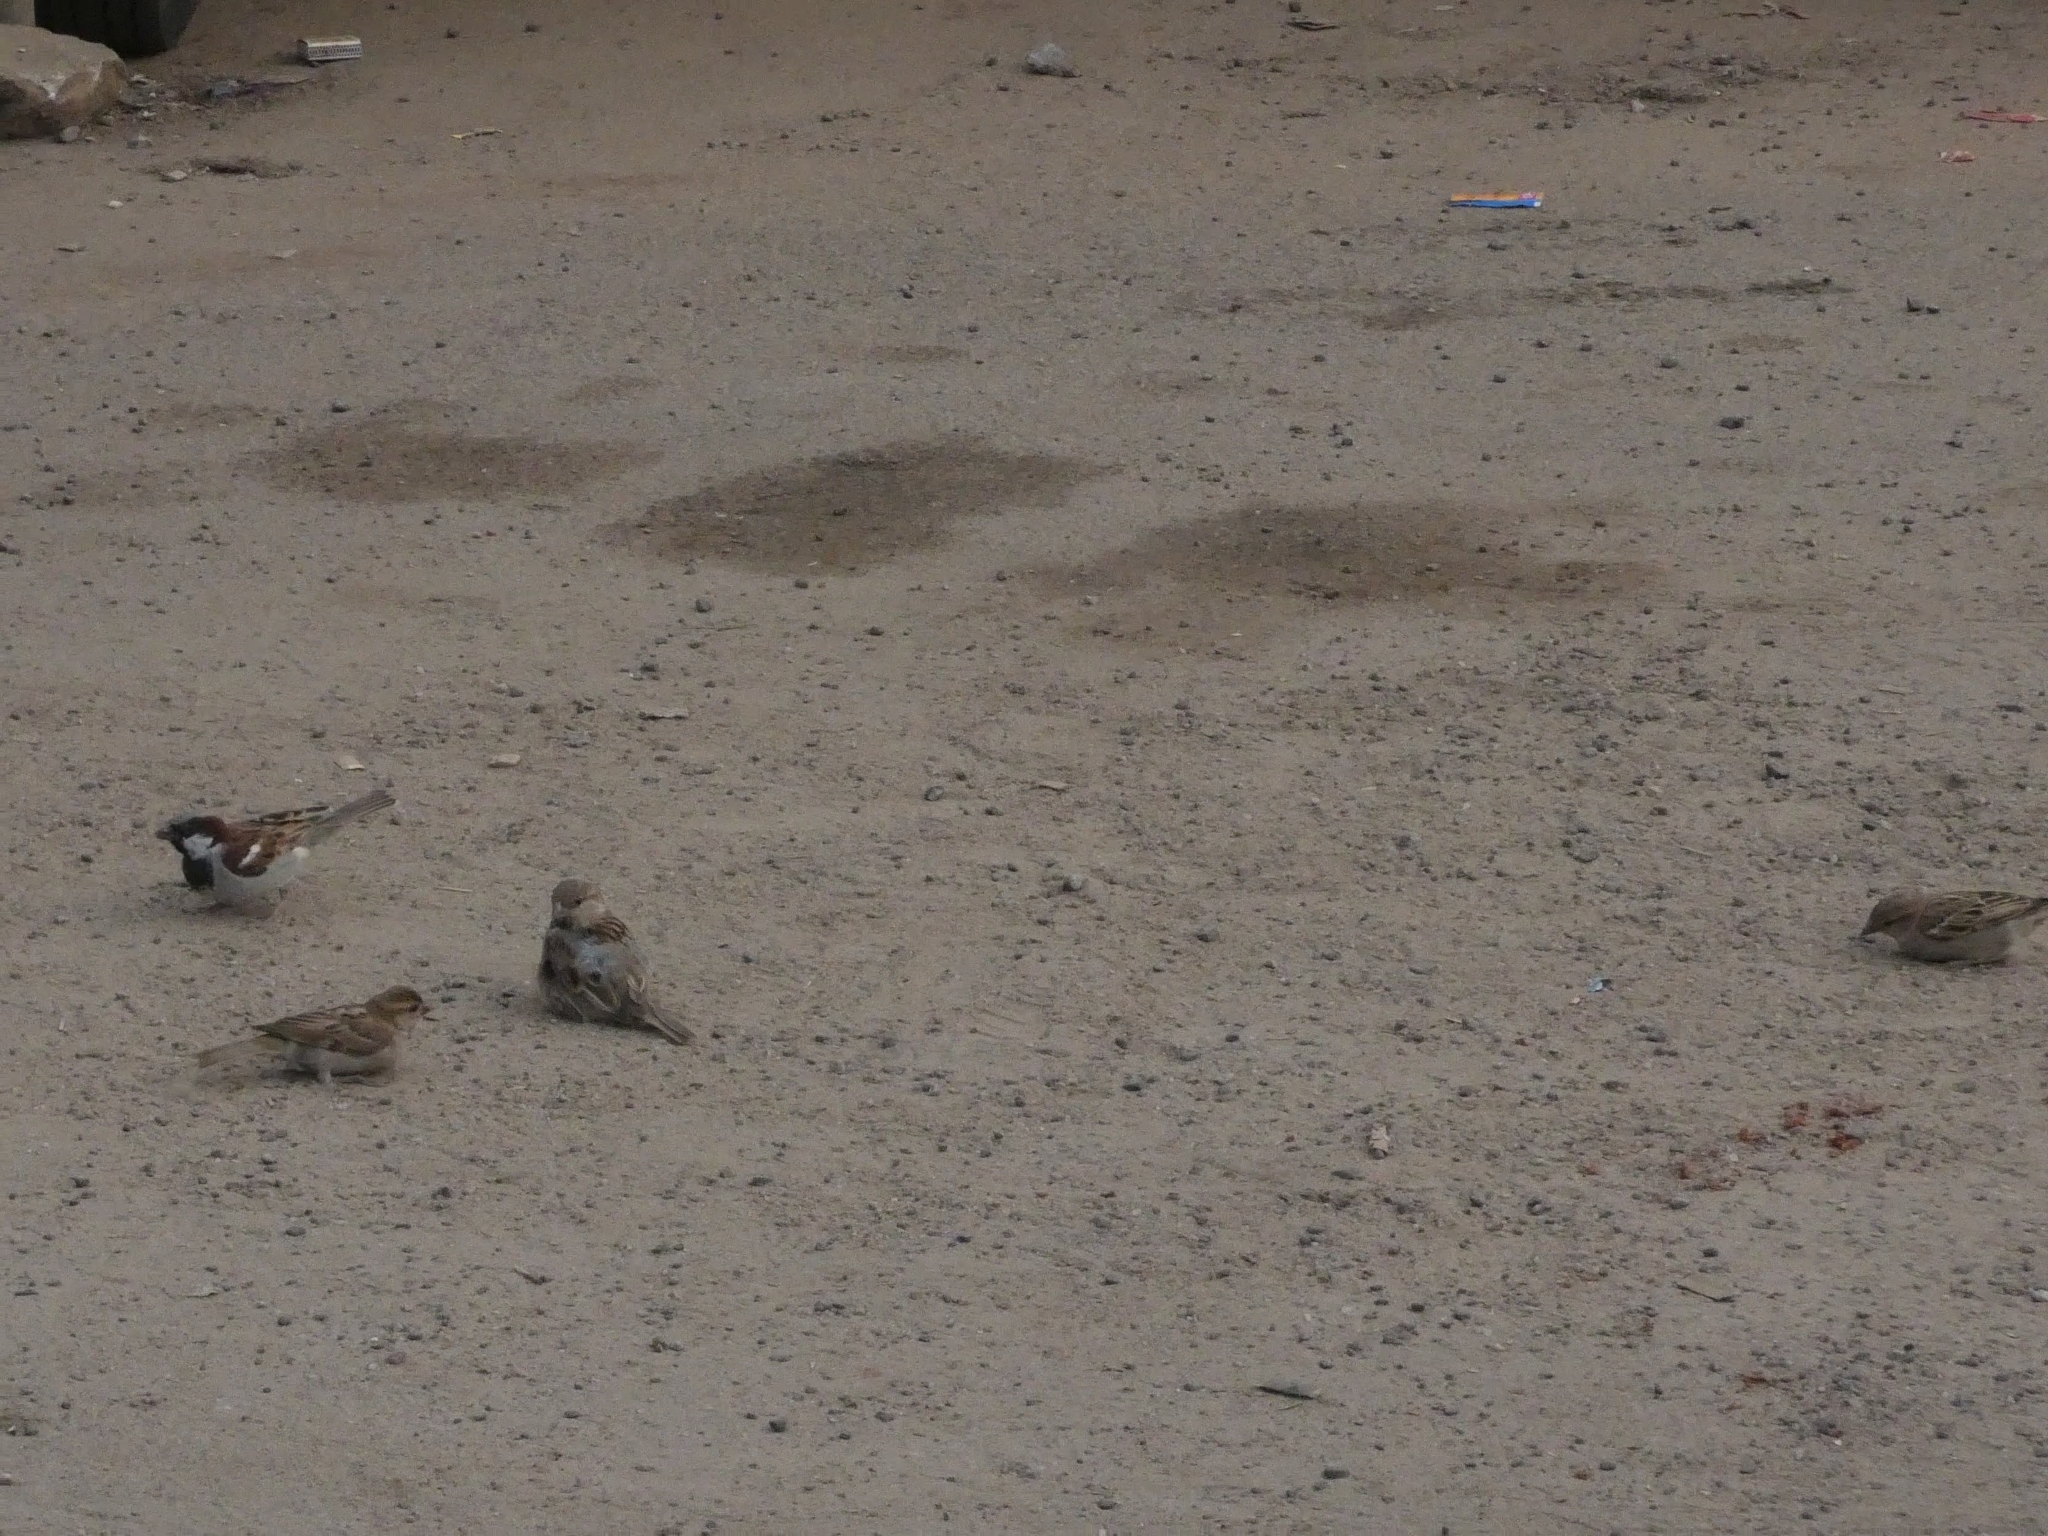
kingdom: Animalia
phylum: Chordata
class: Aves
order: Passeriformes
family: Passeridae
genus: Passer
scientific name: Passer domesticus
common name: House sparrow
